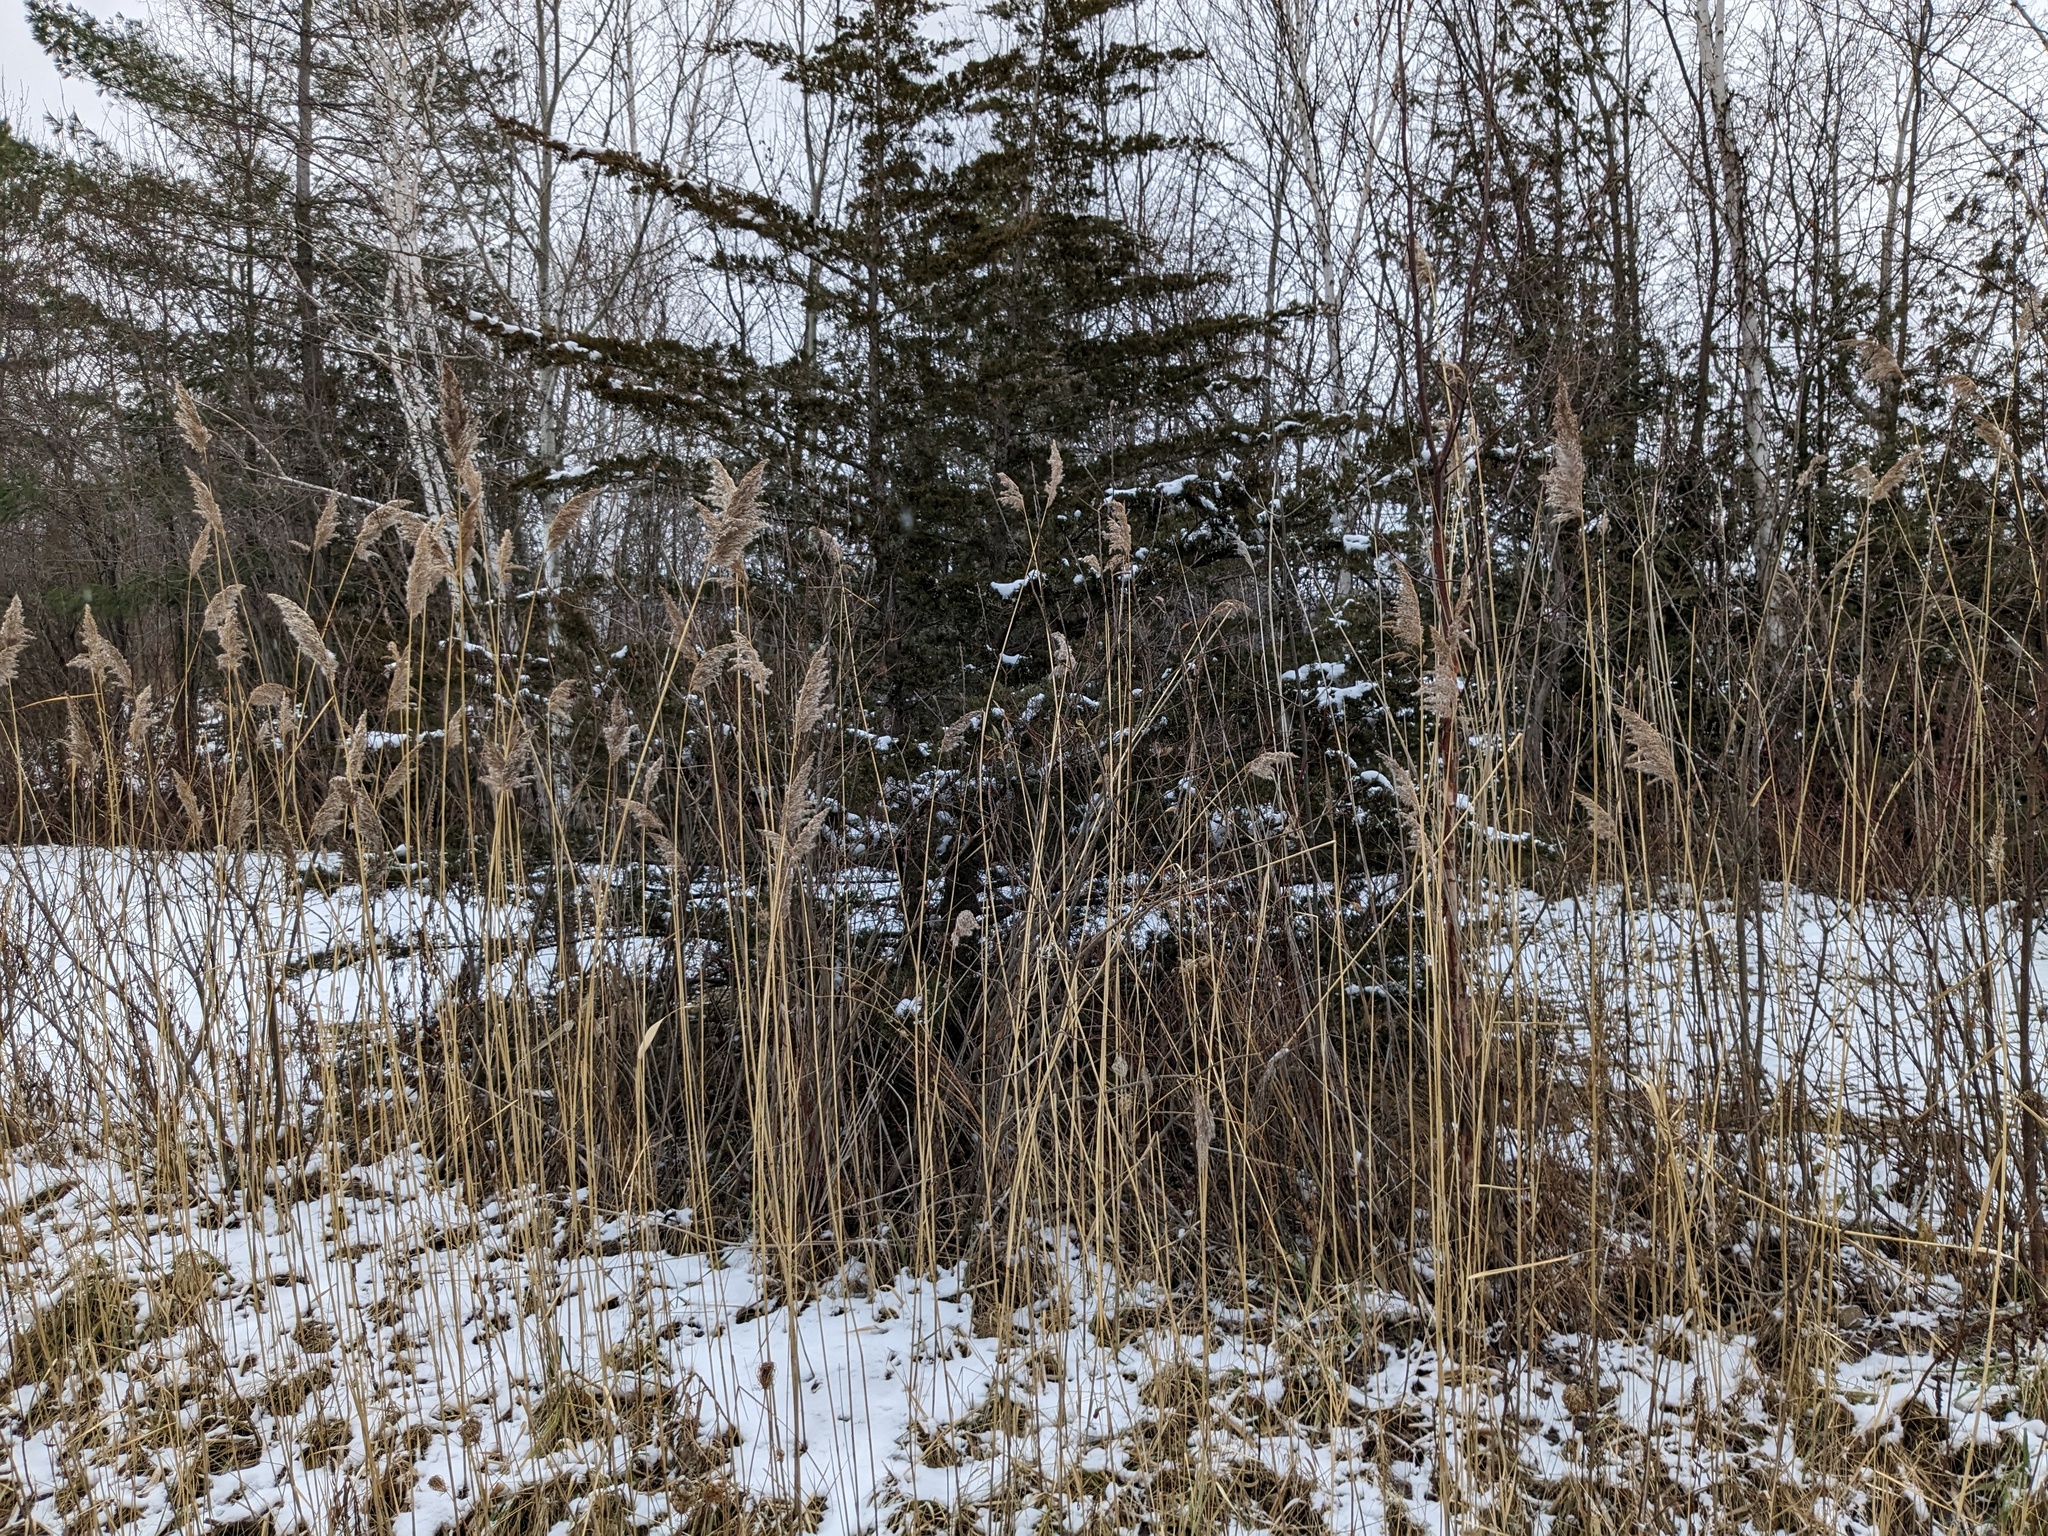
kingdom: Plantae
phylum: Tracheophyta
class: Liliopsida
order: Poales
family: Poaceae
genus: Phragmites
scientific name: Phragmites australis
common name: Common reed
